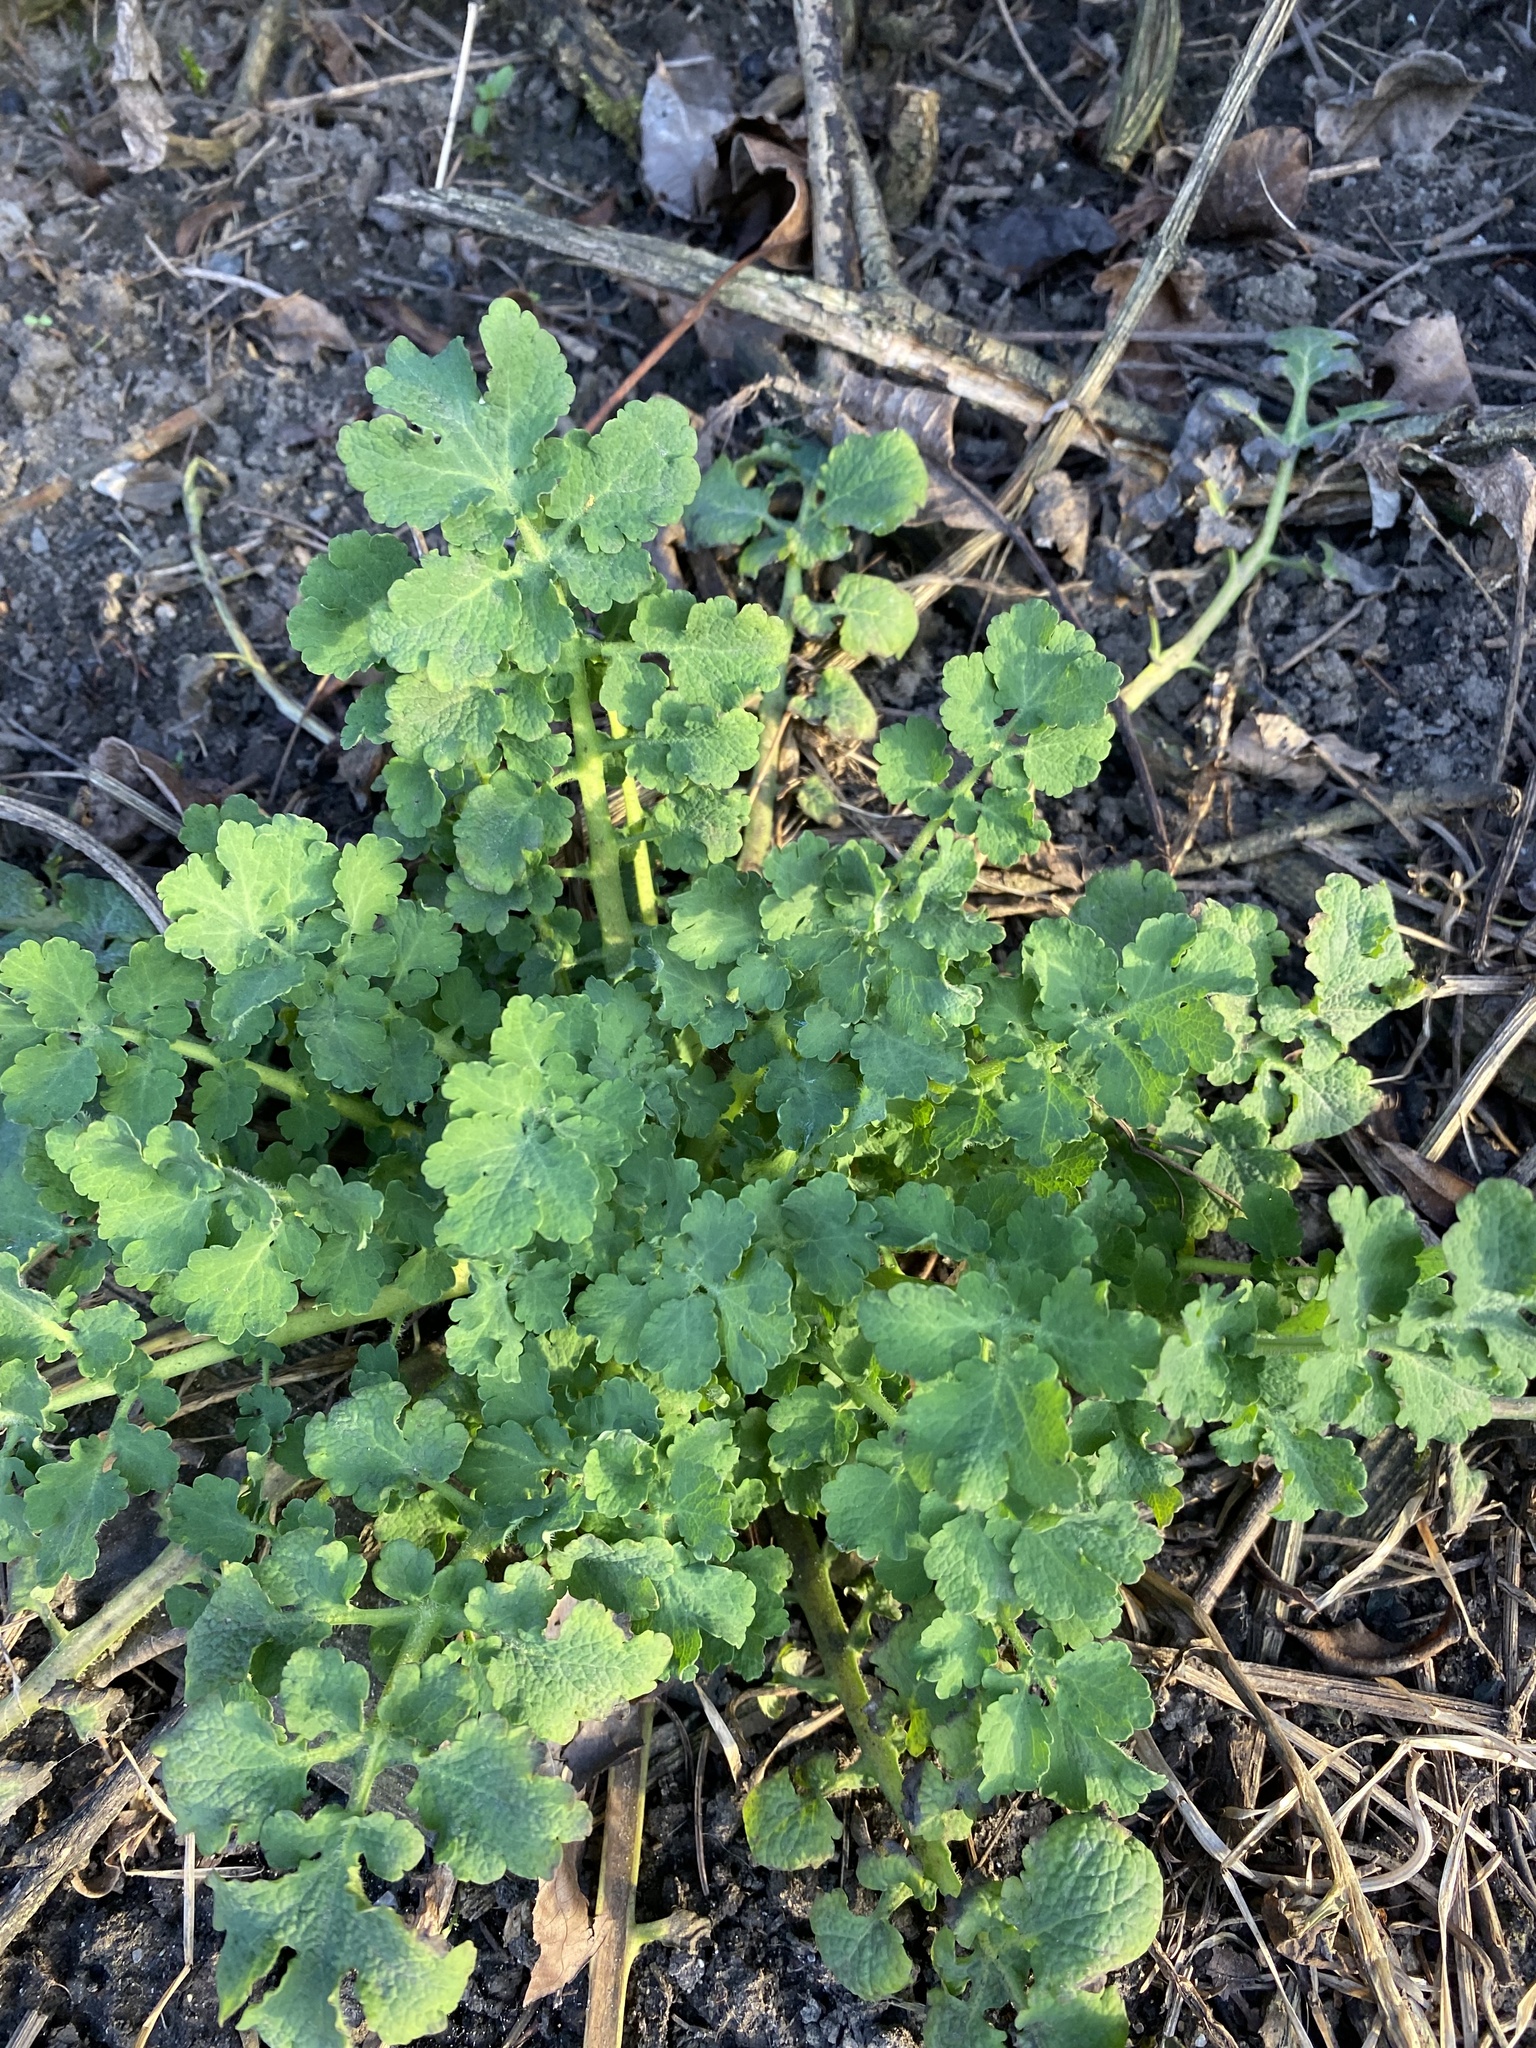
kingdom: Plantae
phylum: Tracheophyta
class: Magnoliopsida
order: Ranunculales
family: Papaveraceae
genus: Chelidonium
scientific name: Chelidonium majus
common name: Greater celandine
